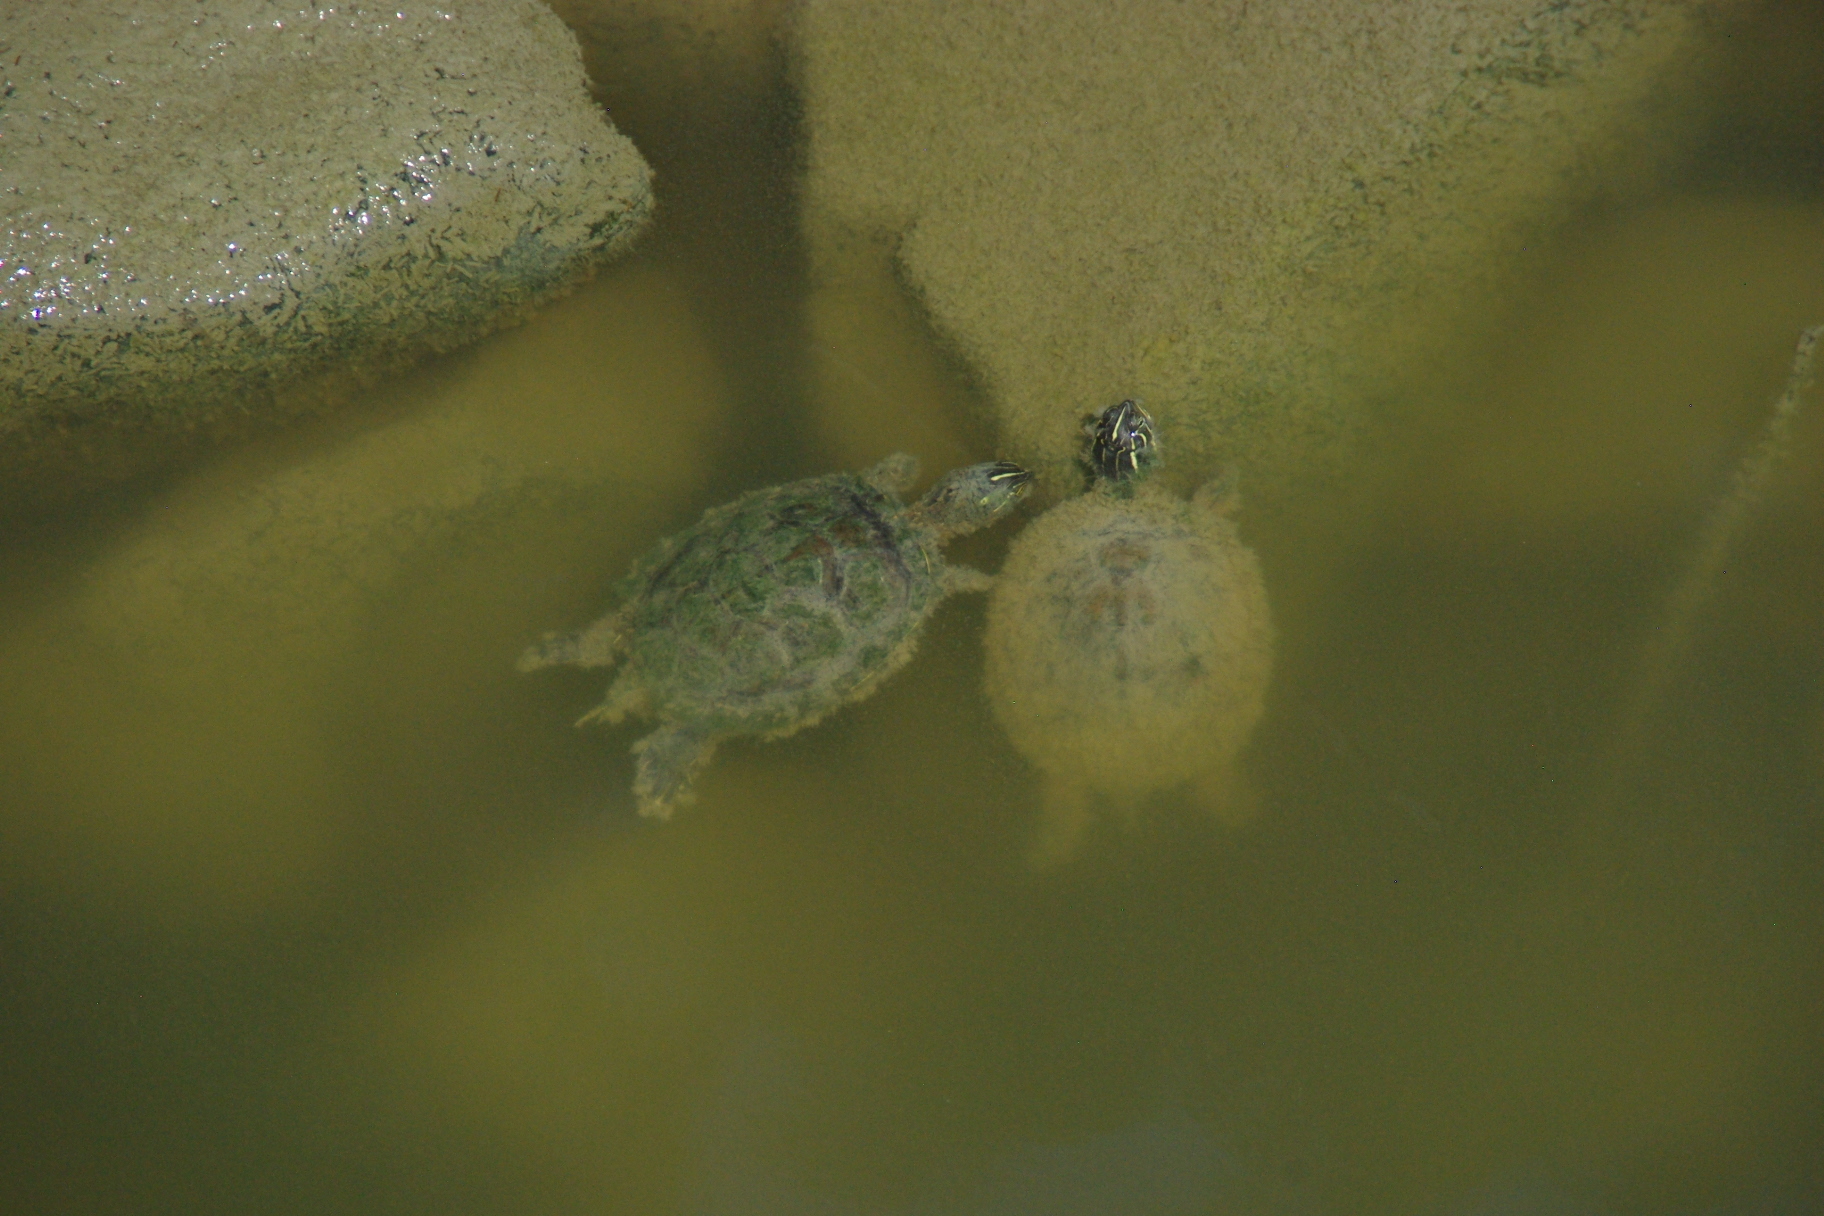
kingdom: Animalia
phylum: Chordata
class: Testudines
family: Emydidae
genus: Pseudemys
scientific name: Pseudemys concinna
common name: Eastern river cooter
